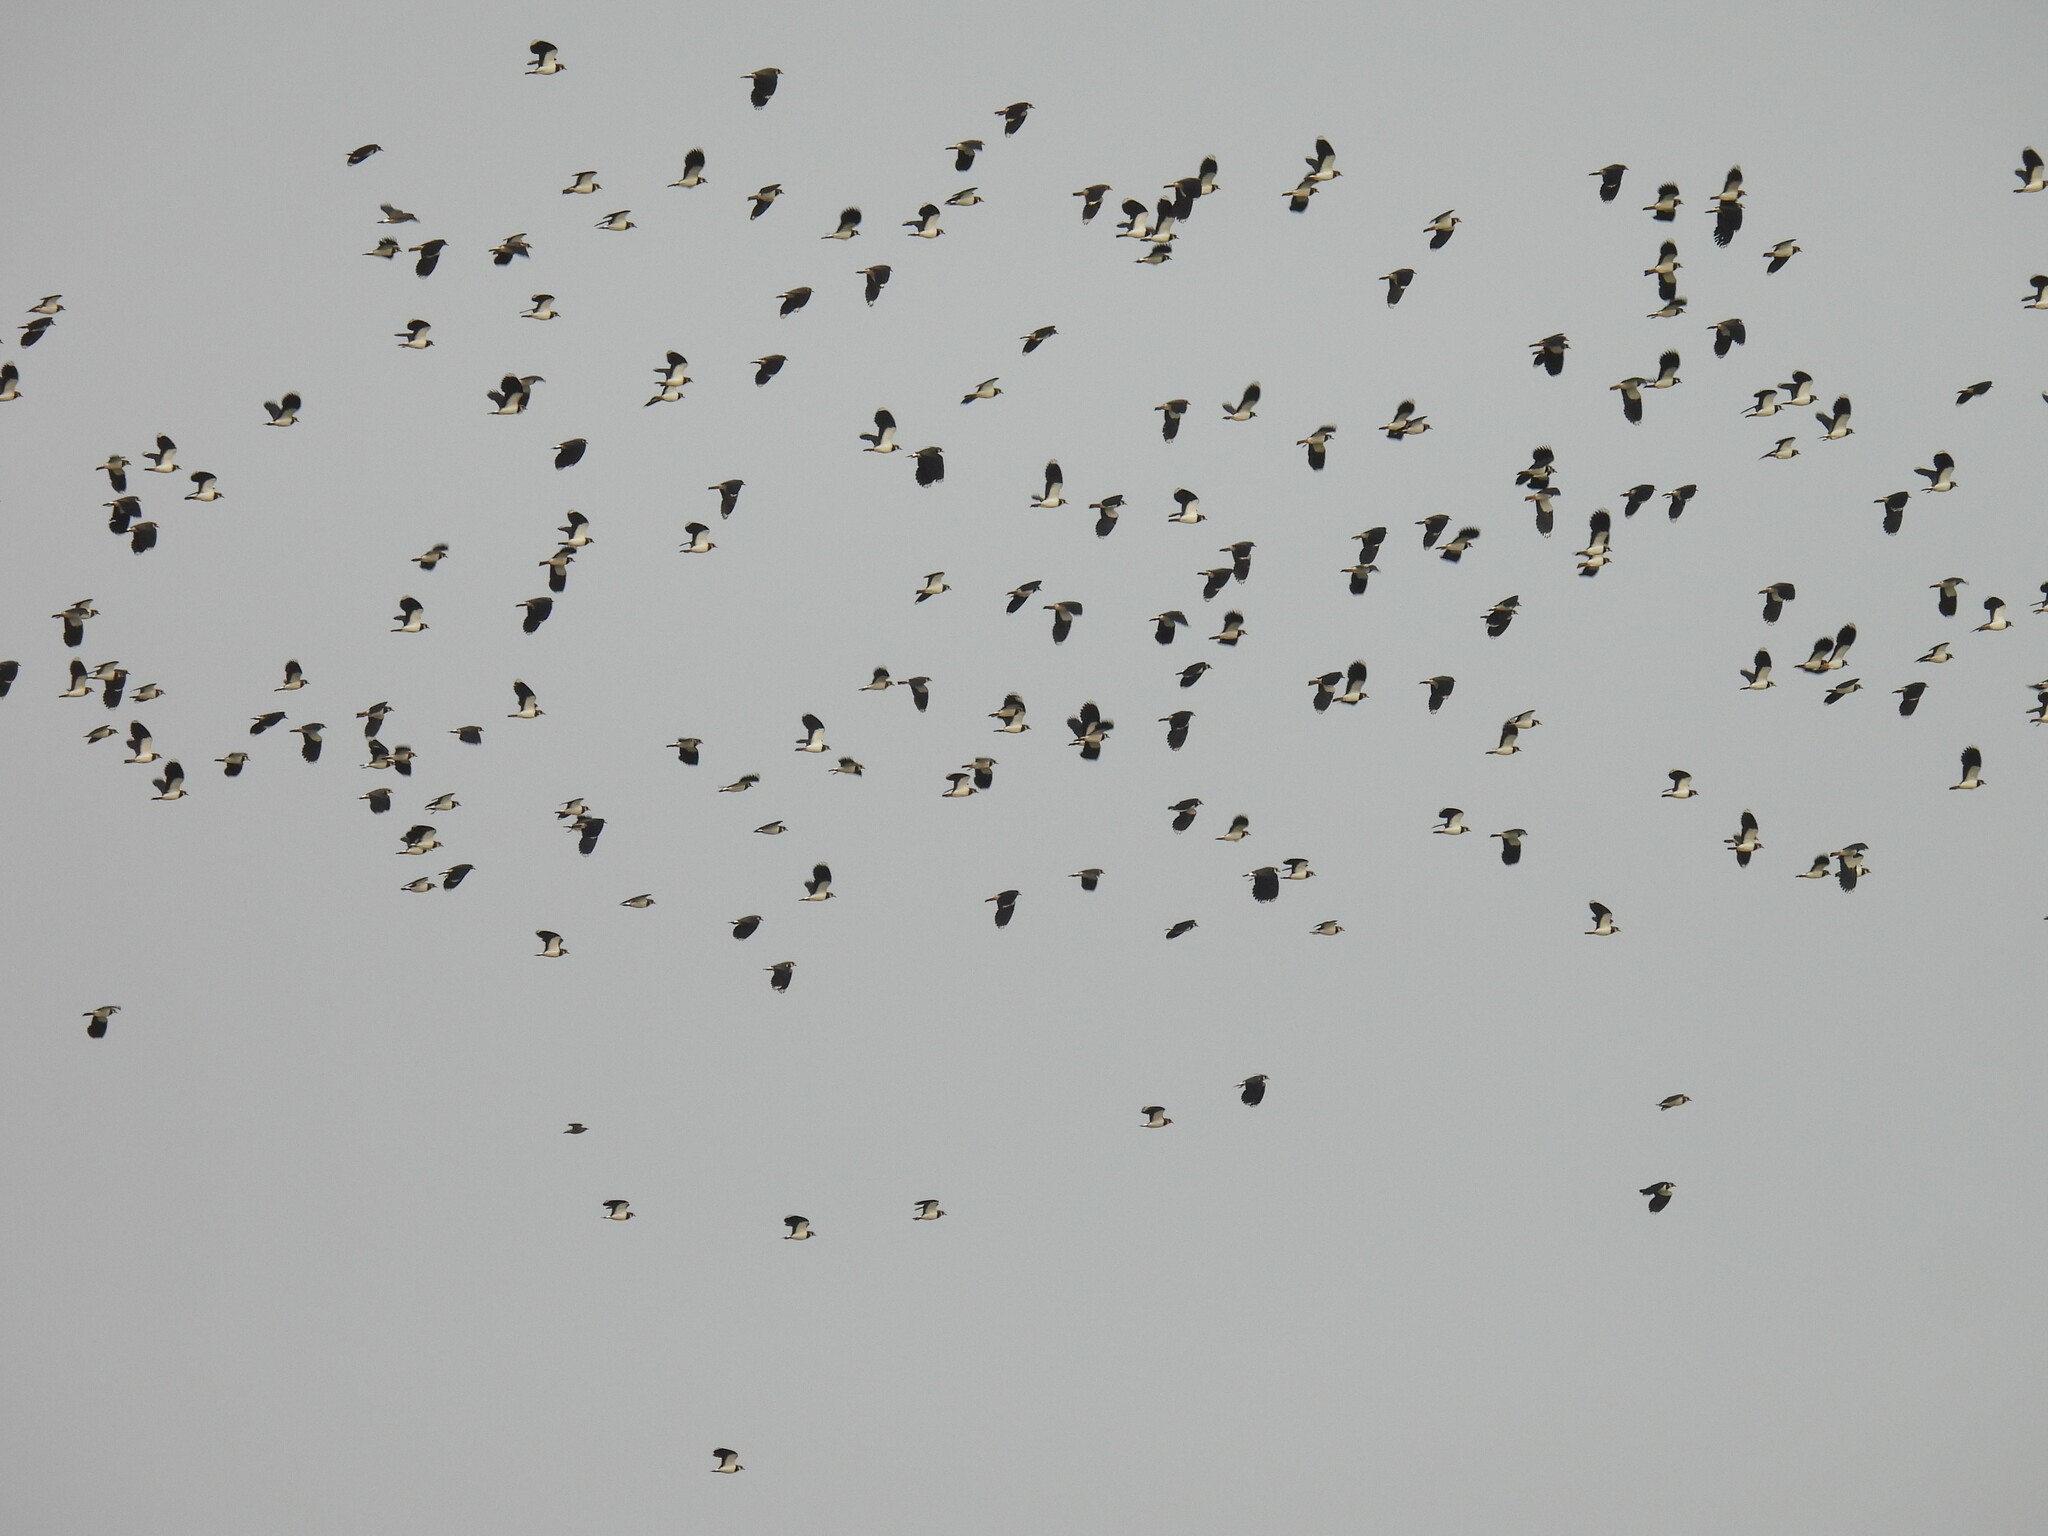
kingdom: Animalia
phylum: Chordata
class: Aves
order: Charadriiformes
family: Charadriidae
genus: Vanellus
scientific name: Vanellus vanellus
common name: Northern lapwing
